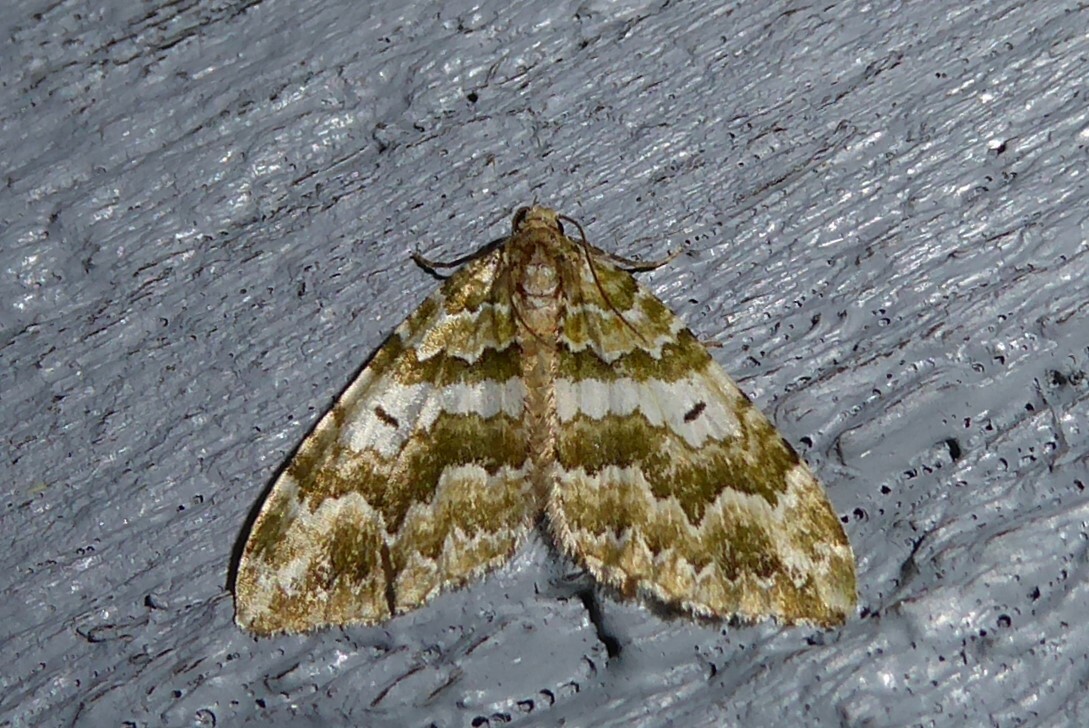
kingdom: Animalia
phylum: Arthropoda
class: Insecta
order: Lepidoptera
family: Geometridae
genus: Asaphodes
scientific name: Asaphodes beata
